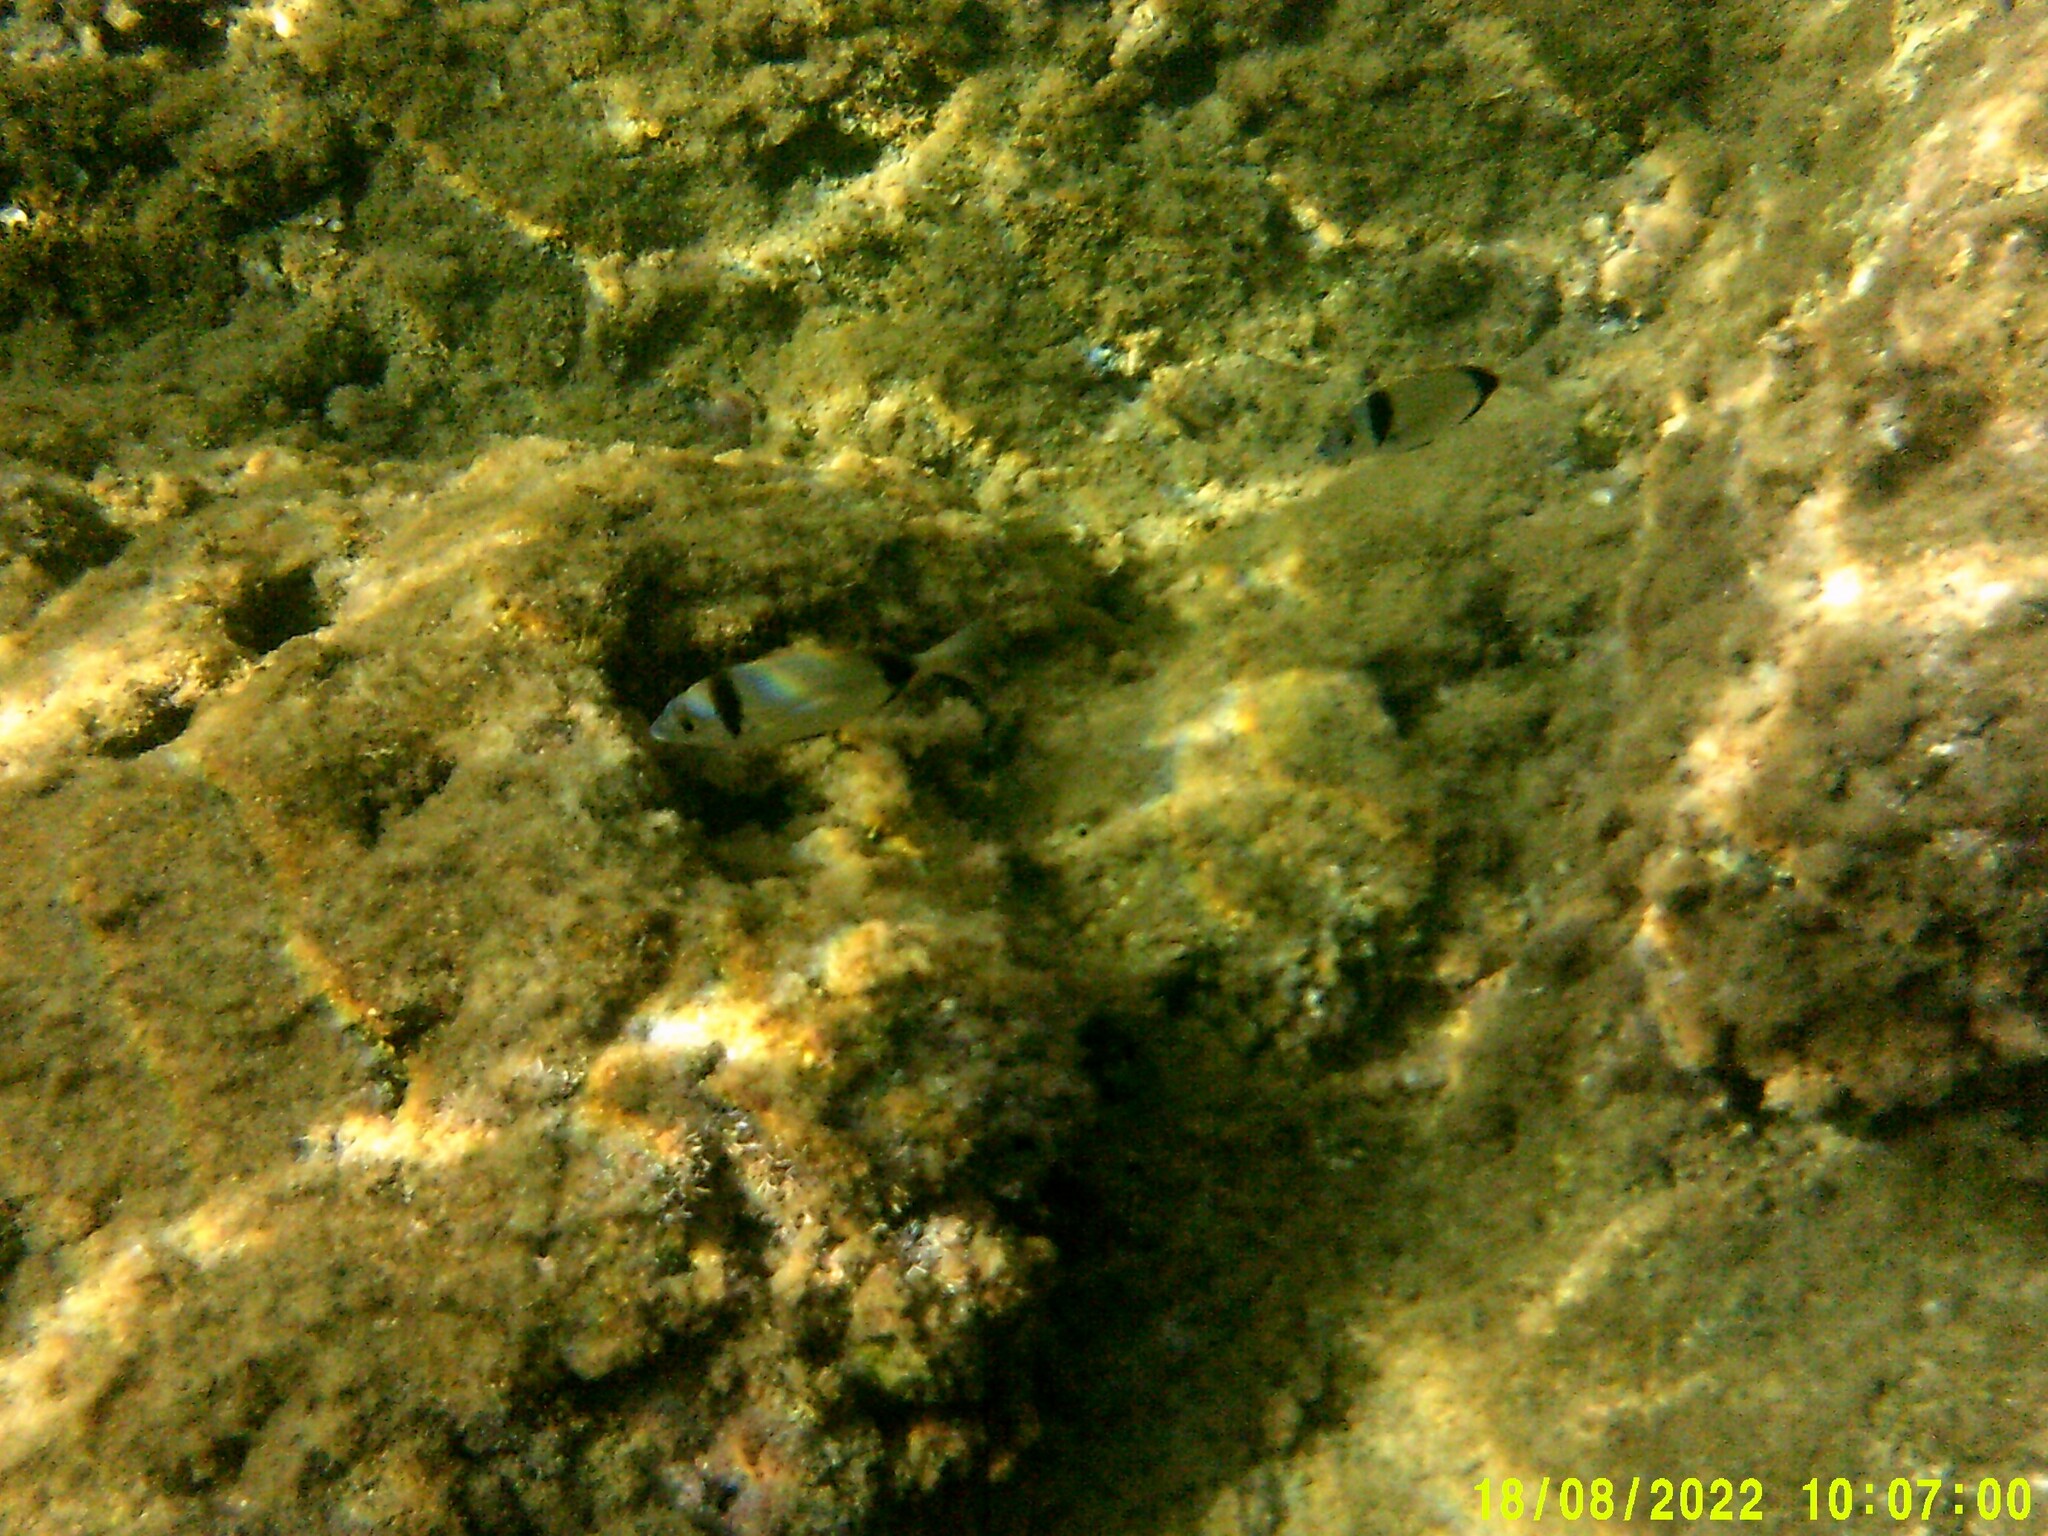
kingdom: Animalia
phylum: Chordata
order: Perciformes
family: Sparidae
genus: Diplodus
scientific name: Diplodus vulgaris
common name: Common two-banded seabream
